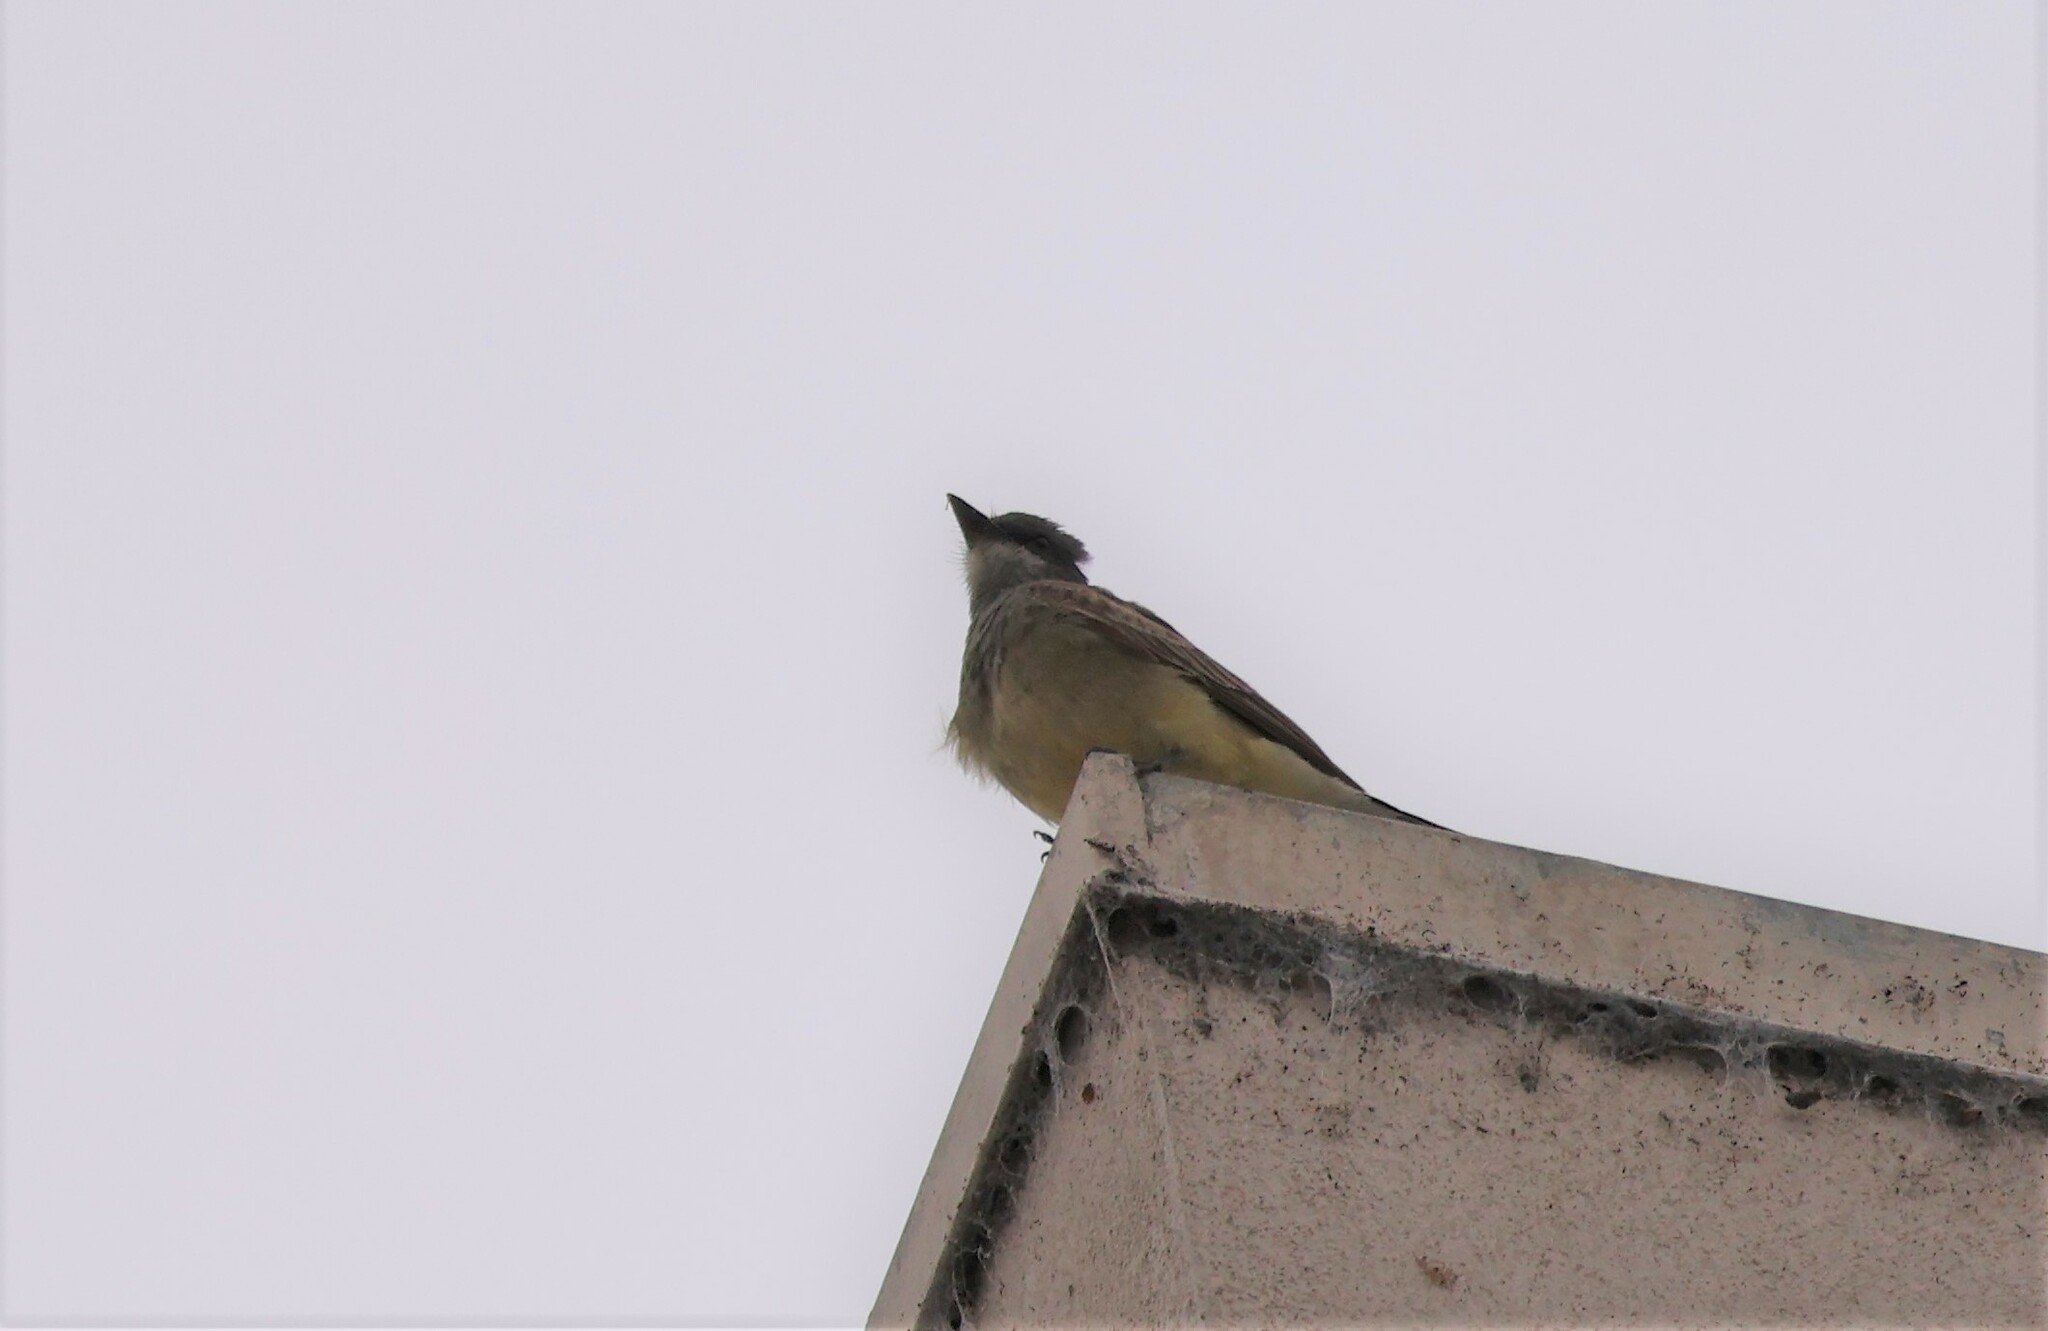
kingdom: Animalia
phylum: Chordata
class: Aves
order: Passeriformes
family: Tyrannidae
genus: Tyrannus
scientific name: Tyrannus vociferans
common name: Cassin's kingbird
